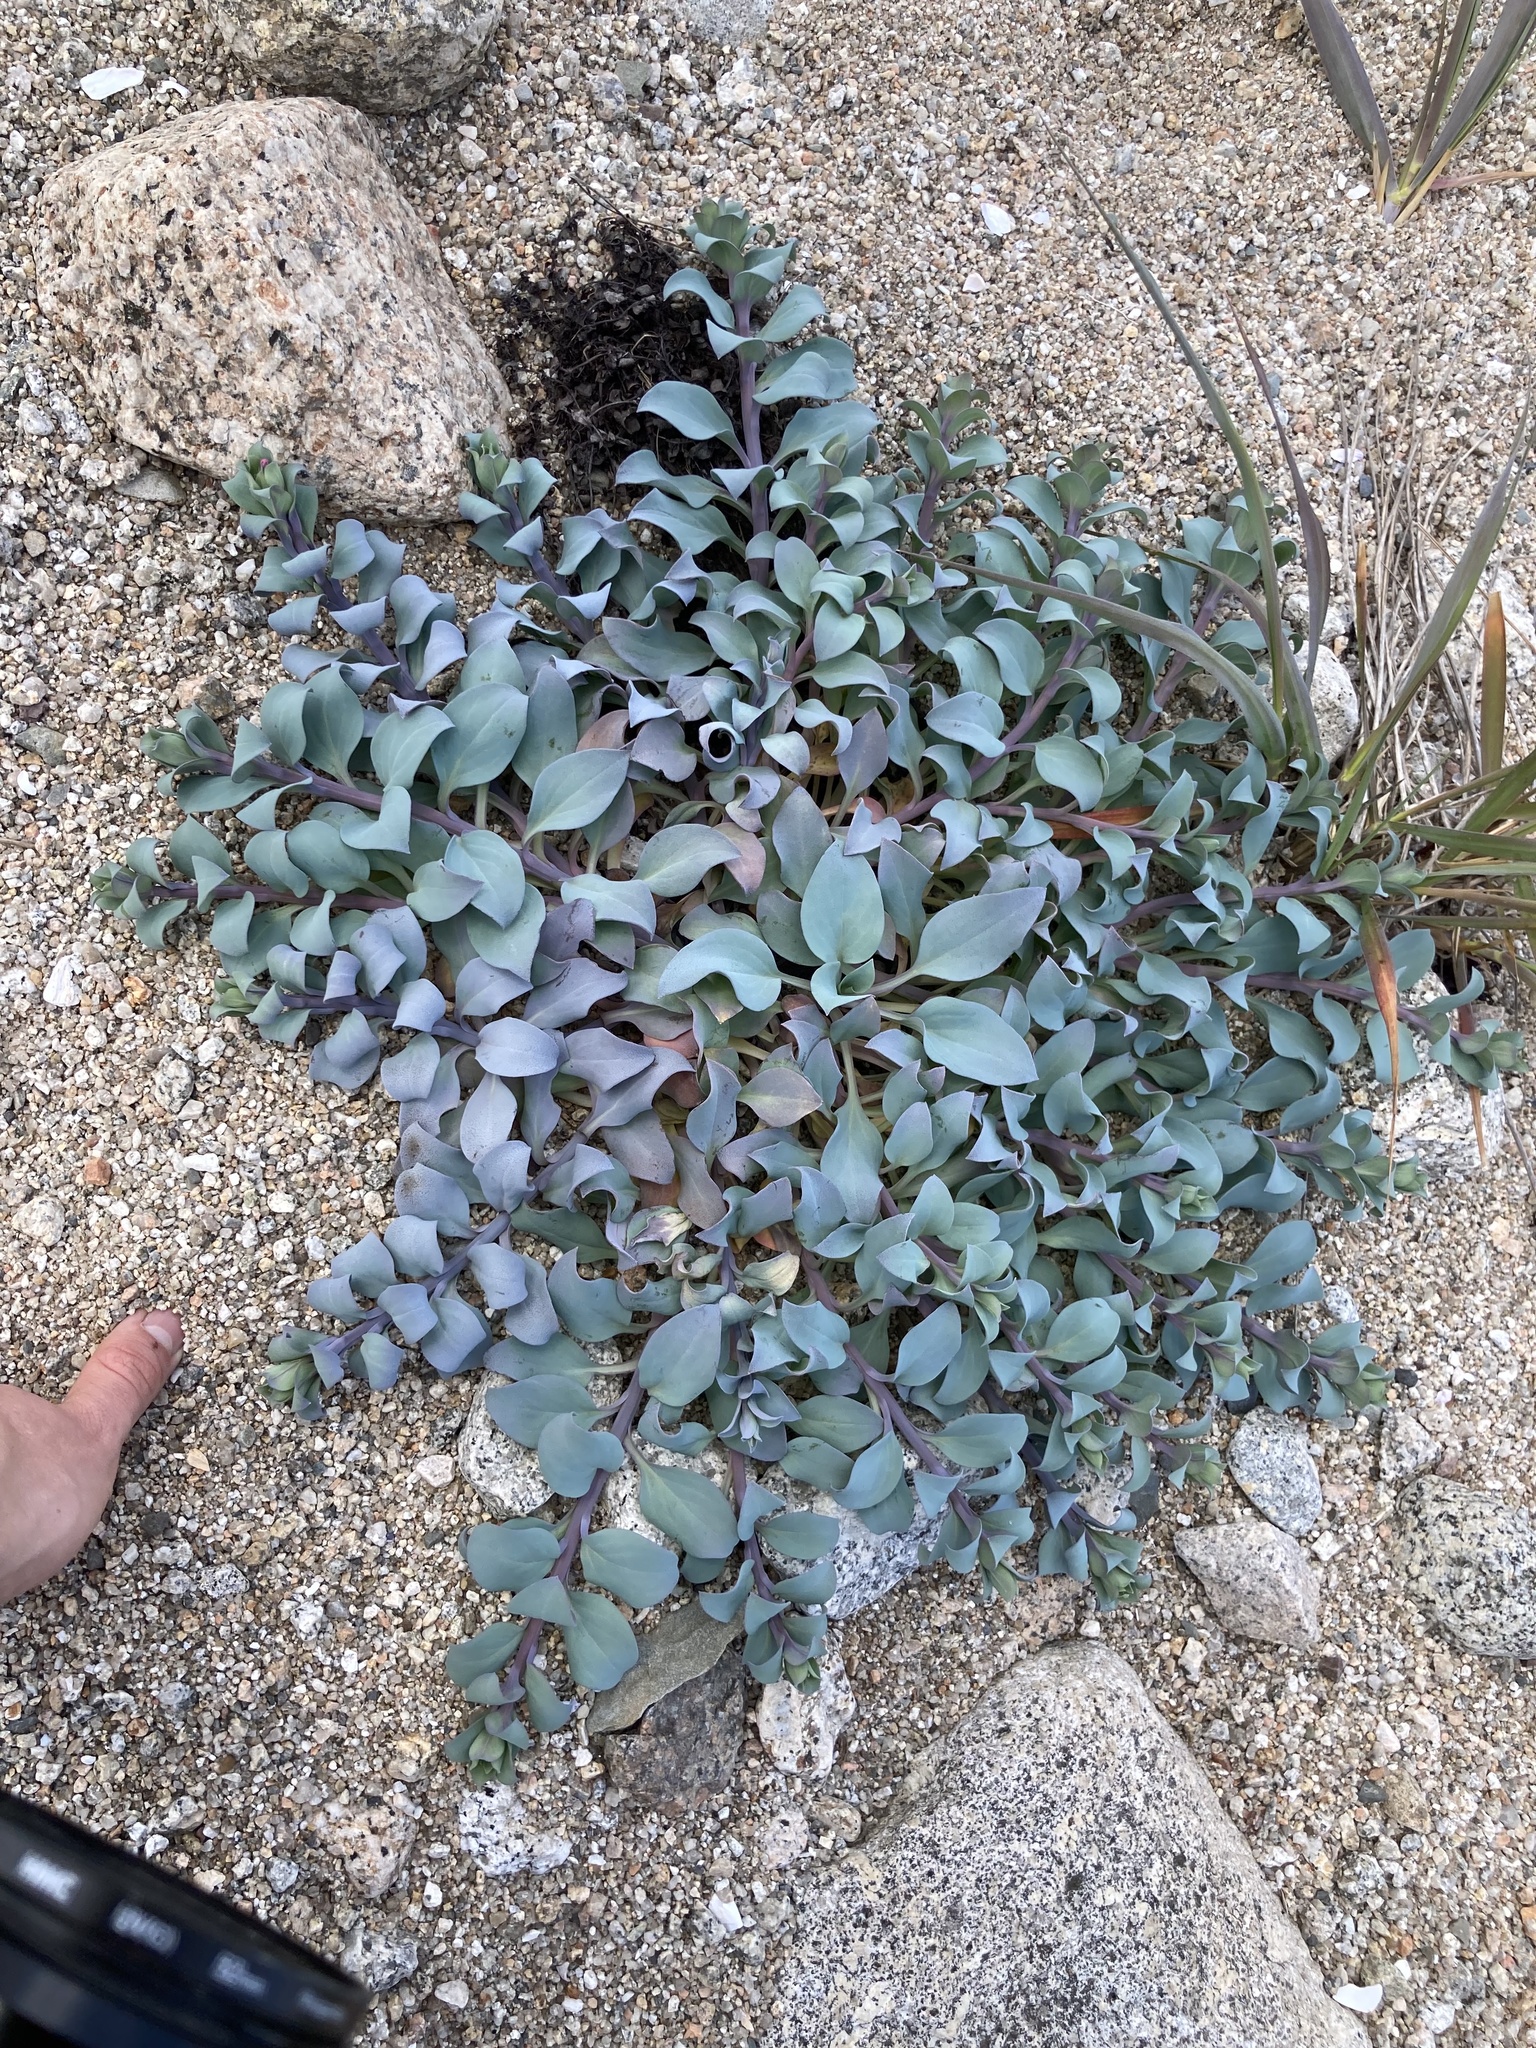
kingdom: Plantae
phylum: Tracheophyta
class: Magnoliopsida
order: Boraginales
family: Boraginaceae
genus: Mertensia
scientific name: Mertensia maritima
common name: Oysterplant
